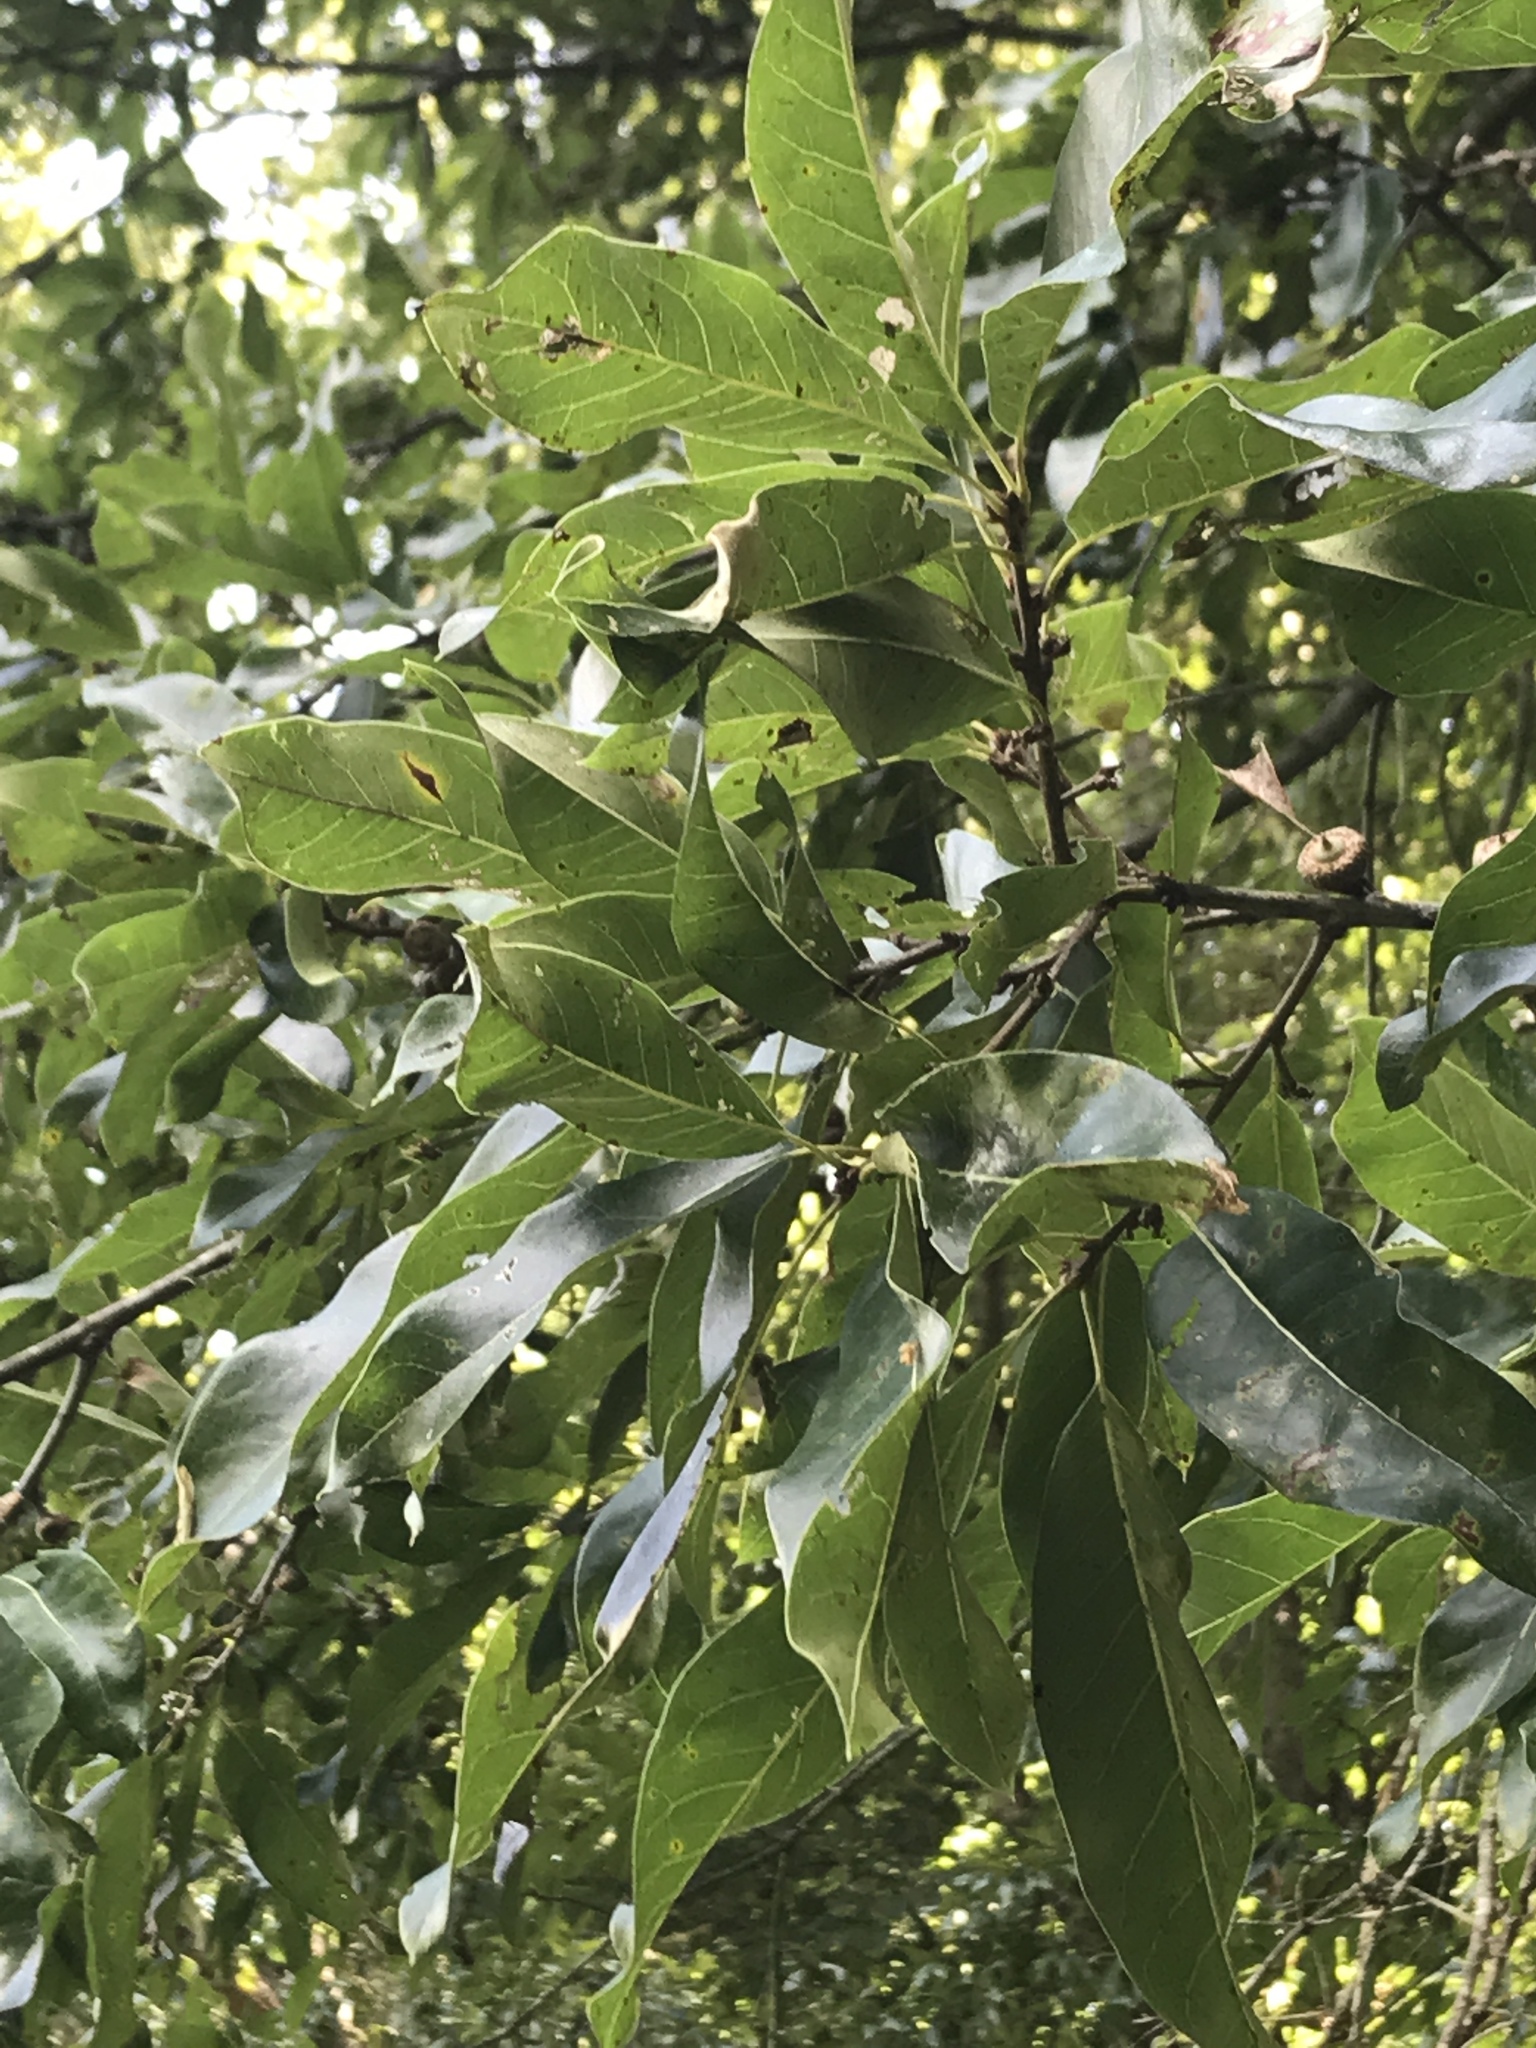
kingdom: Plantae
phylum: Tracheophyta
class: Magnoliopsida
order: Fagales
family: Fagaceae
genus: Quercus
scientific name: Quercus imbricaria
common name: Shingle oak
